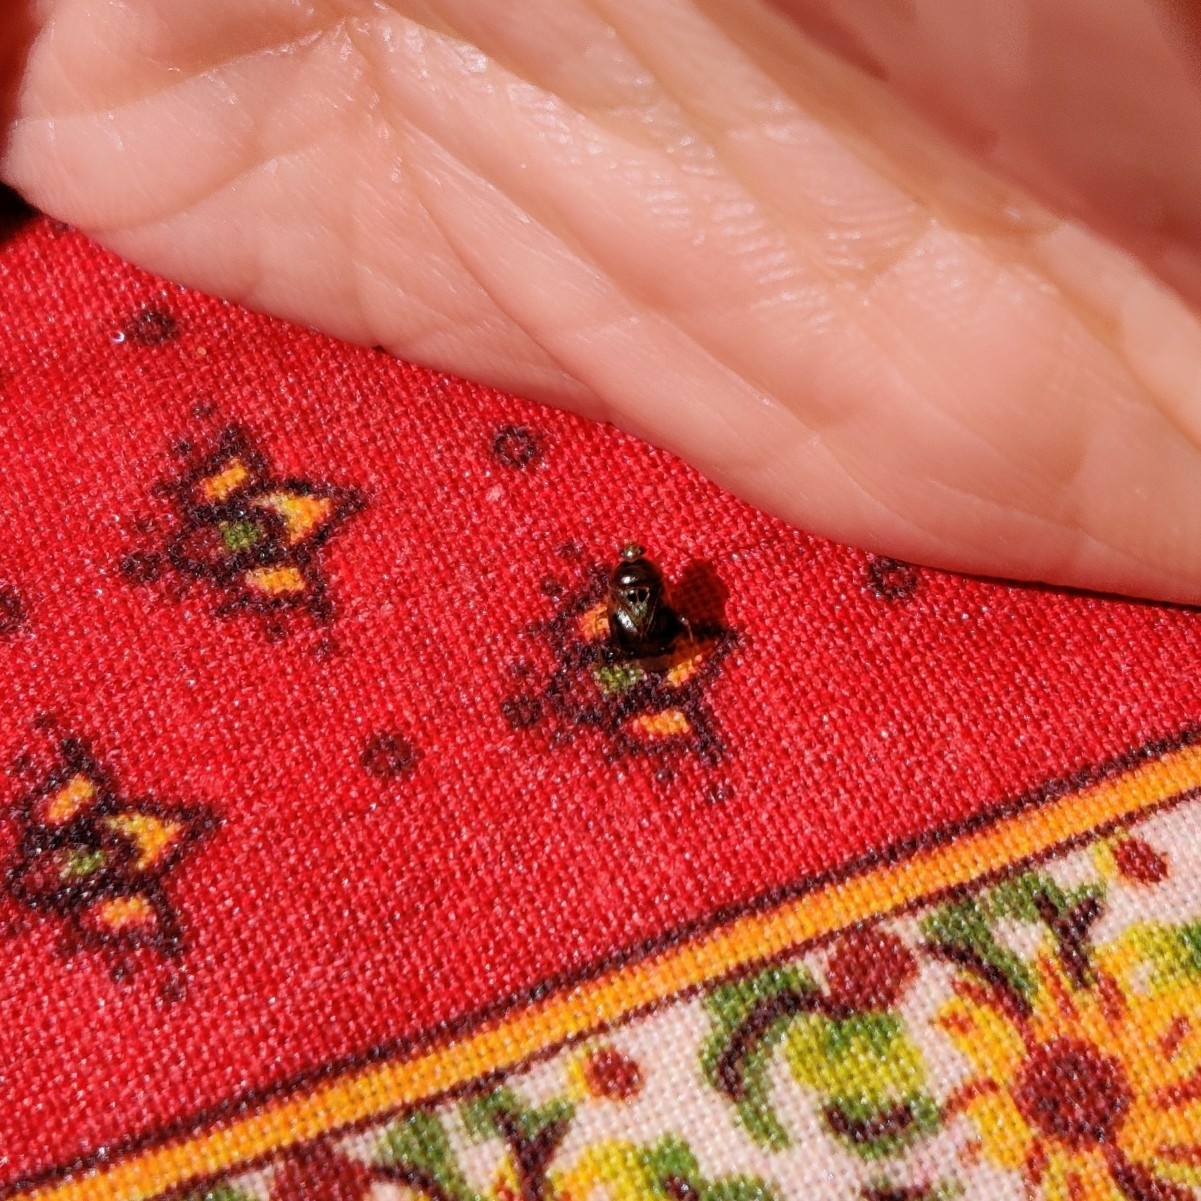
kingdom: Animalia
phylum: Arthropoda
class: Insecta
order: Hemiptera
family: Miridae
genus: Deraeocoris
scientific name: Deraeocoris lutescens
